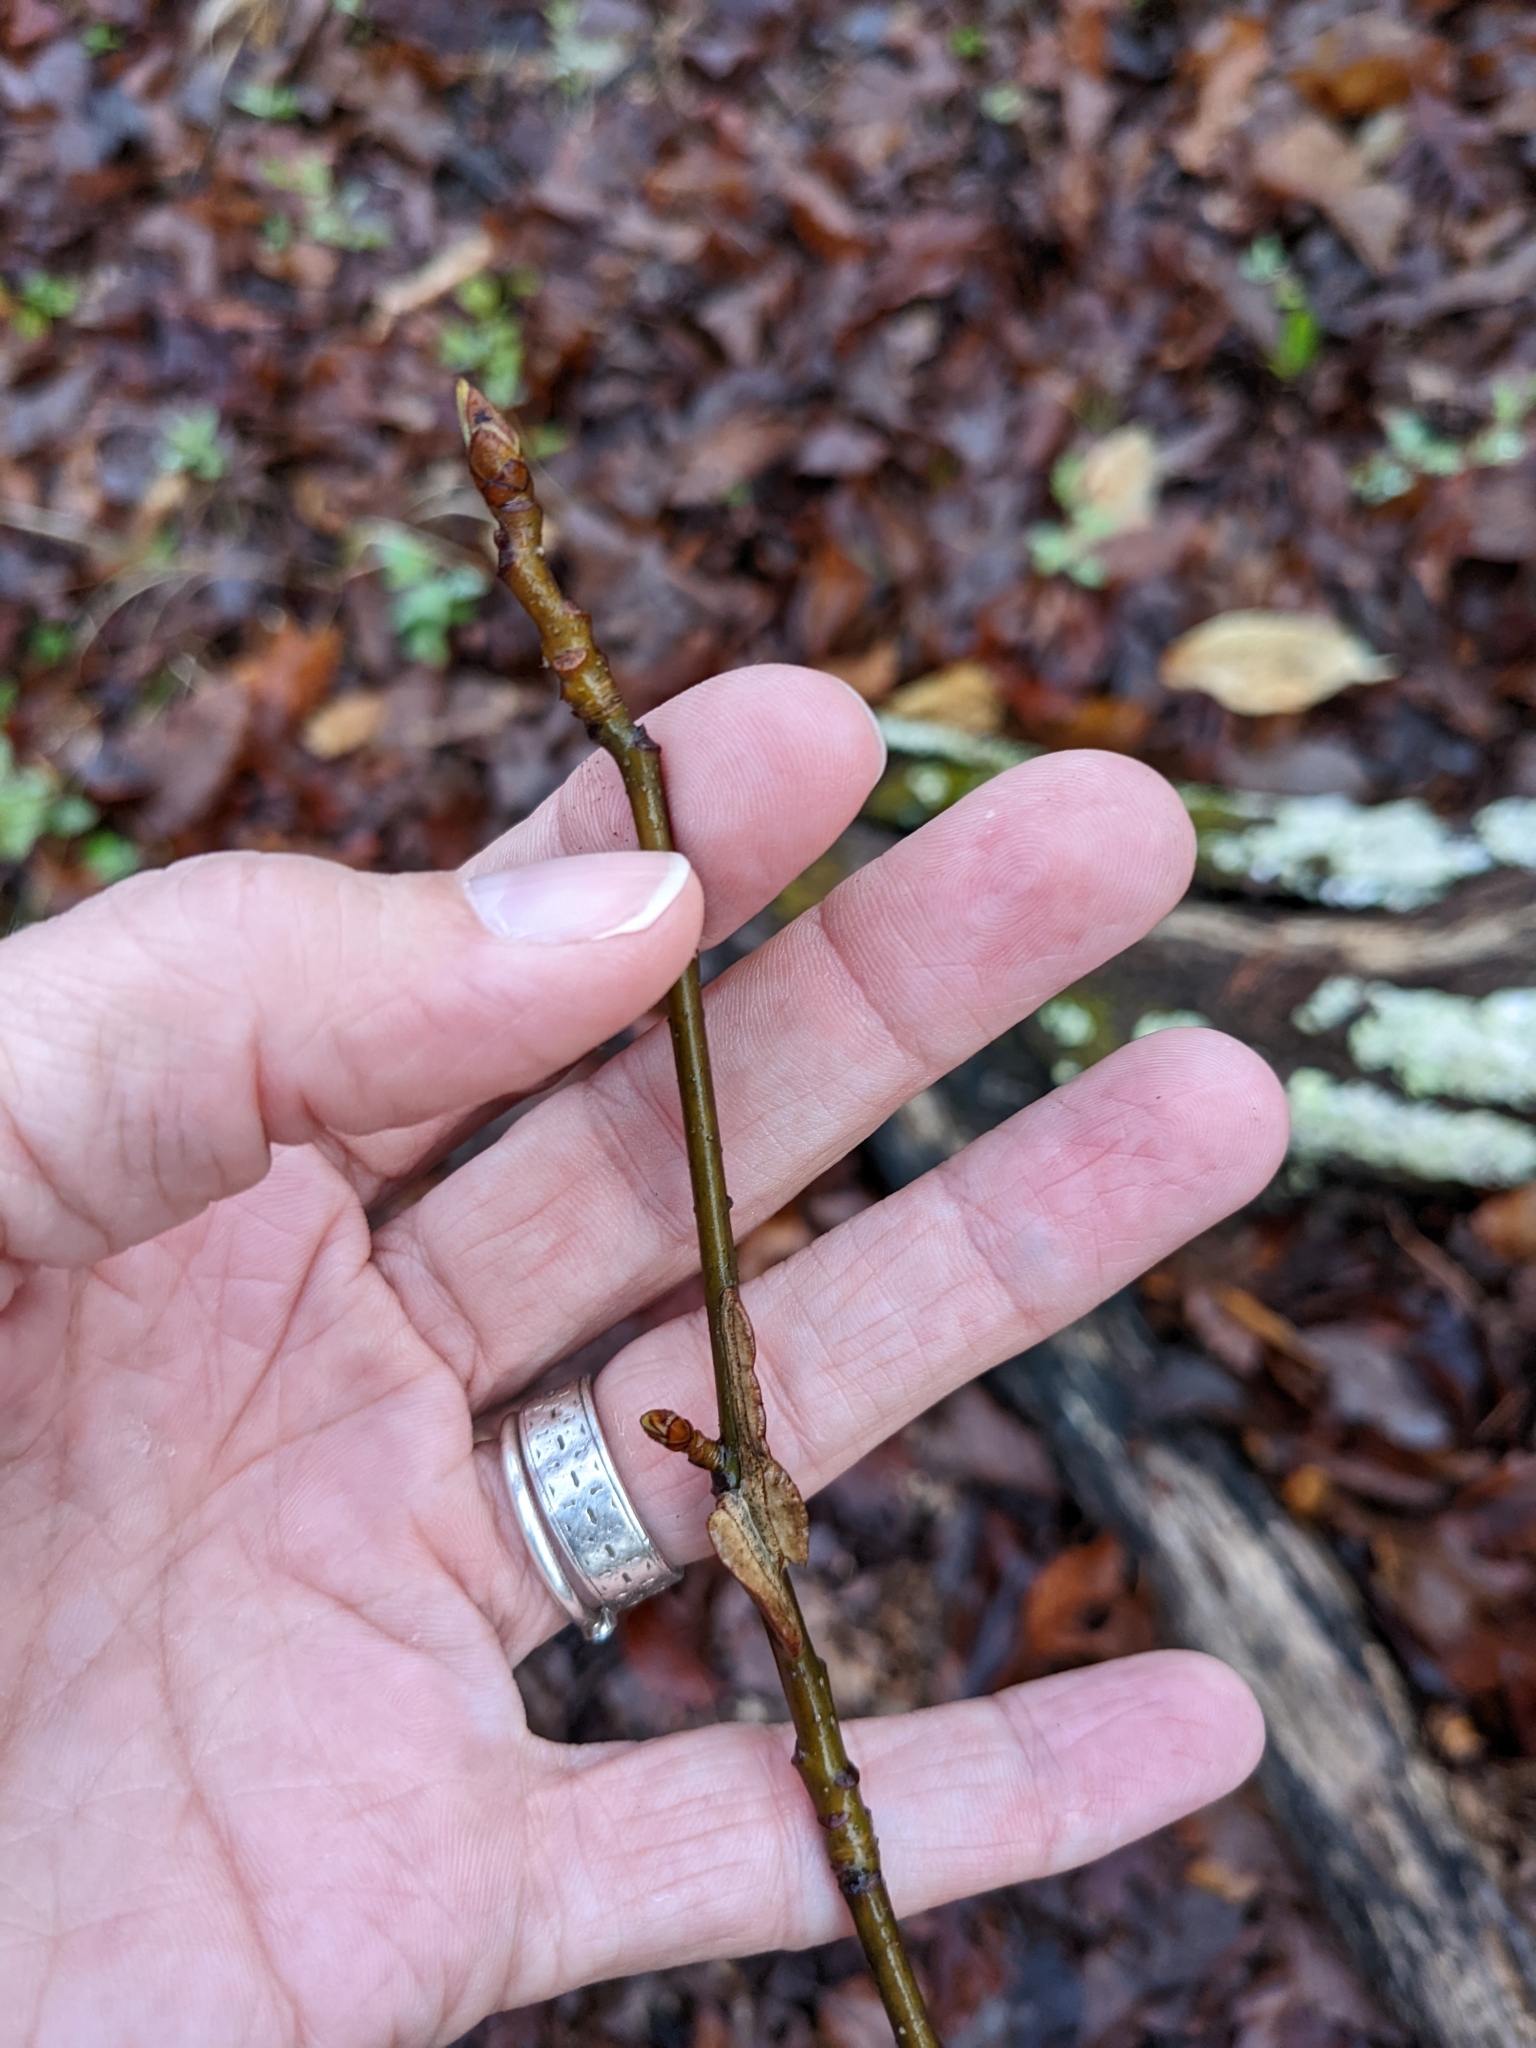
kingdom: Plantae
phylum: Tracheophyta
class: Magnoliopsida
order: Saxifragales
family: Altingiaceae
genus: Liquidambar
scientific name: Liquidambar styraciflua
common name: Sweet gum
